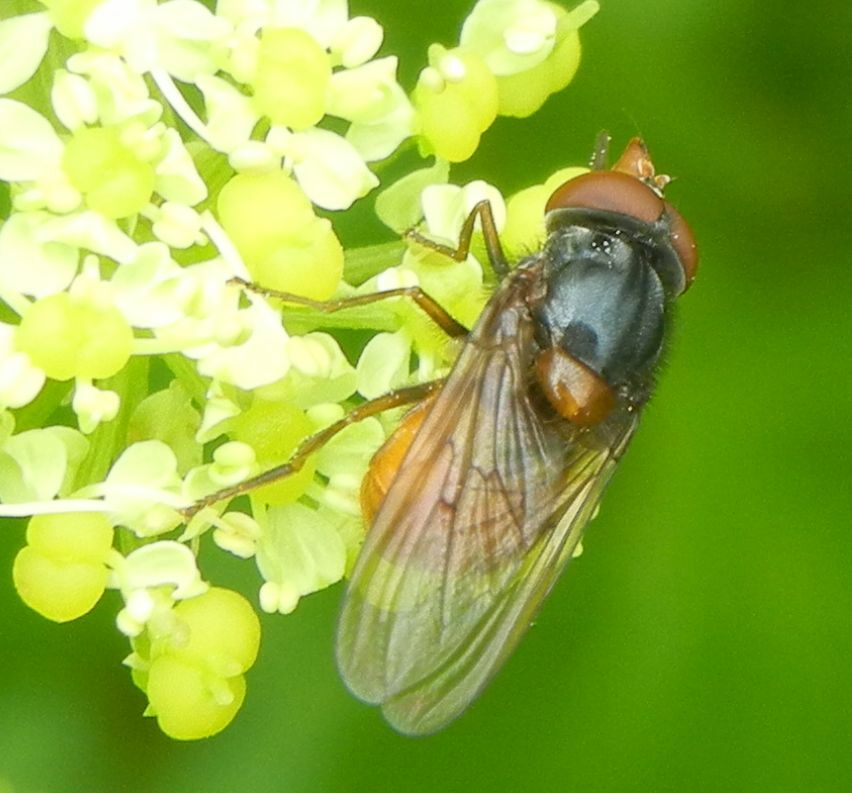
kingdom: Animalia
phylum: Arthropoda
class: Insecta
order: Diptera
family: Syrphidae
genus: Rhingia
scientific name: Rhingia rostrata
